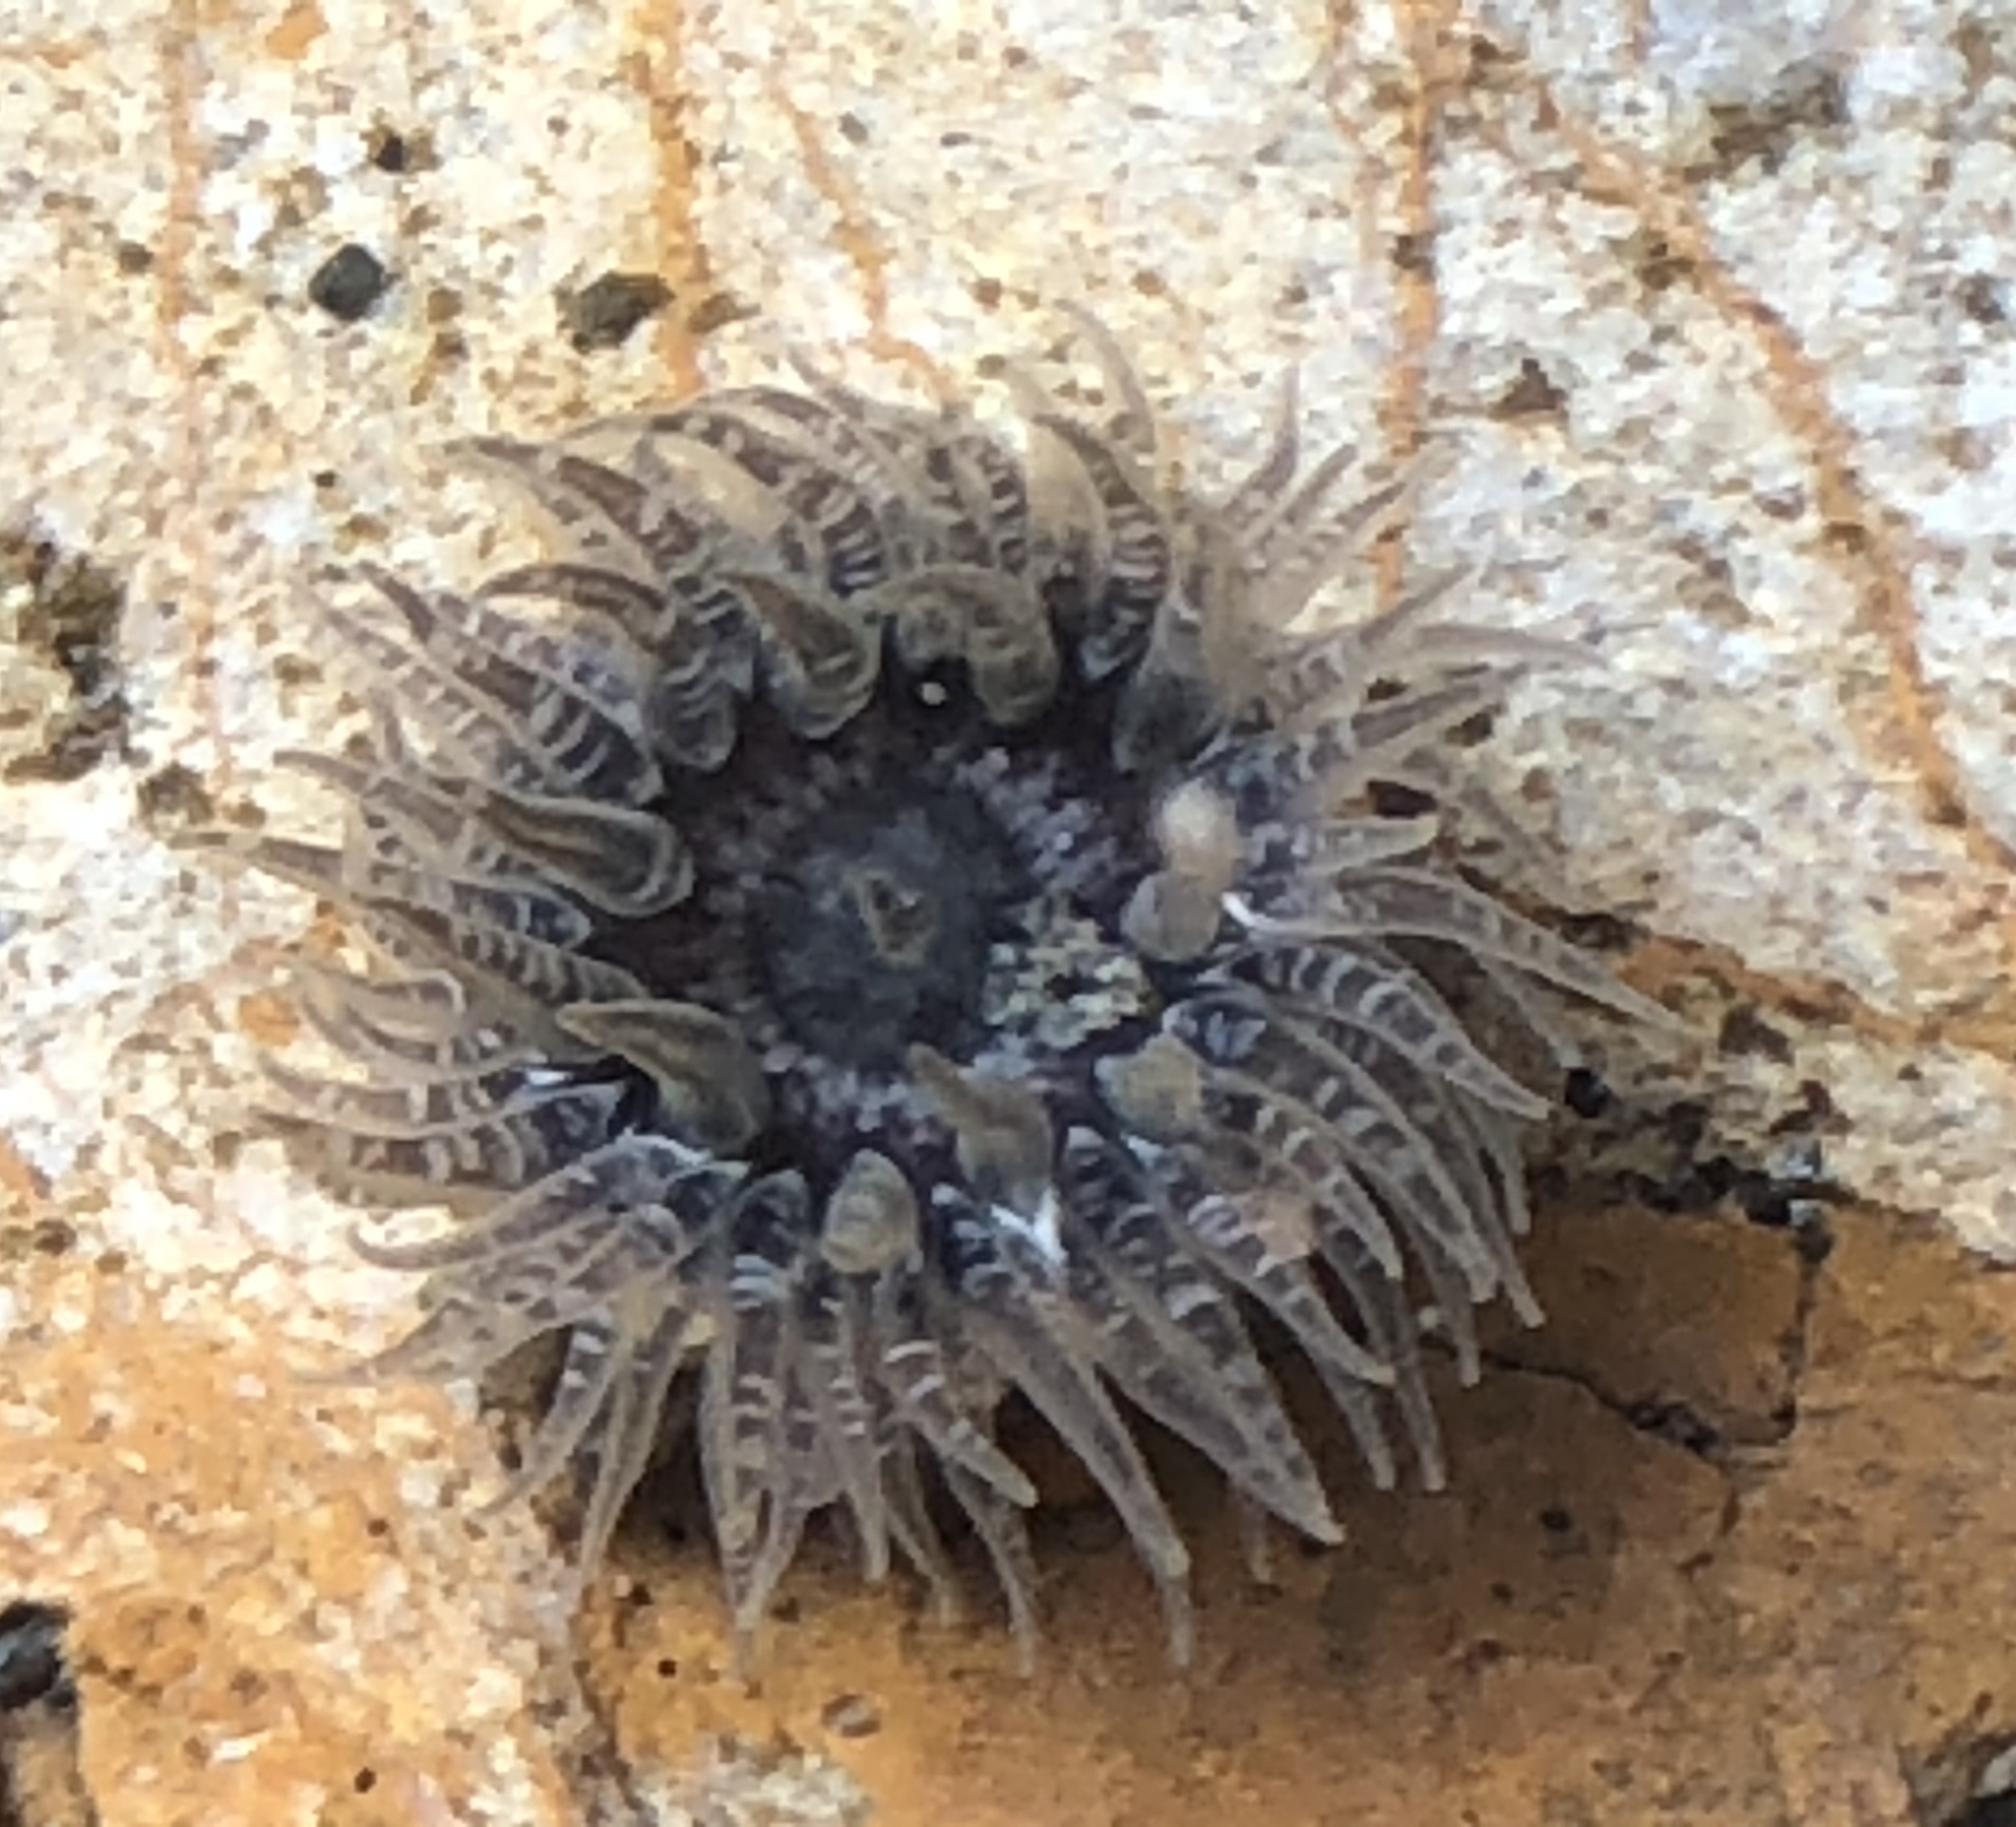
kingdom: Animalia
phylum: Cnidaria
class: Anthozoa
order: Actiniaria
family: Actiniidae
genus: Anthopleura
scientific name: Anthopleura artemisia
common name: Buried sea anemone
